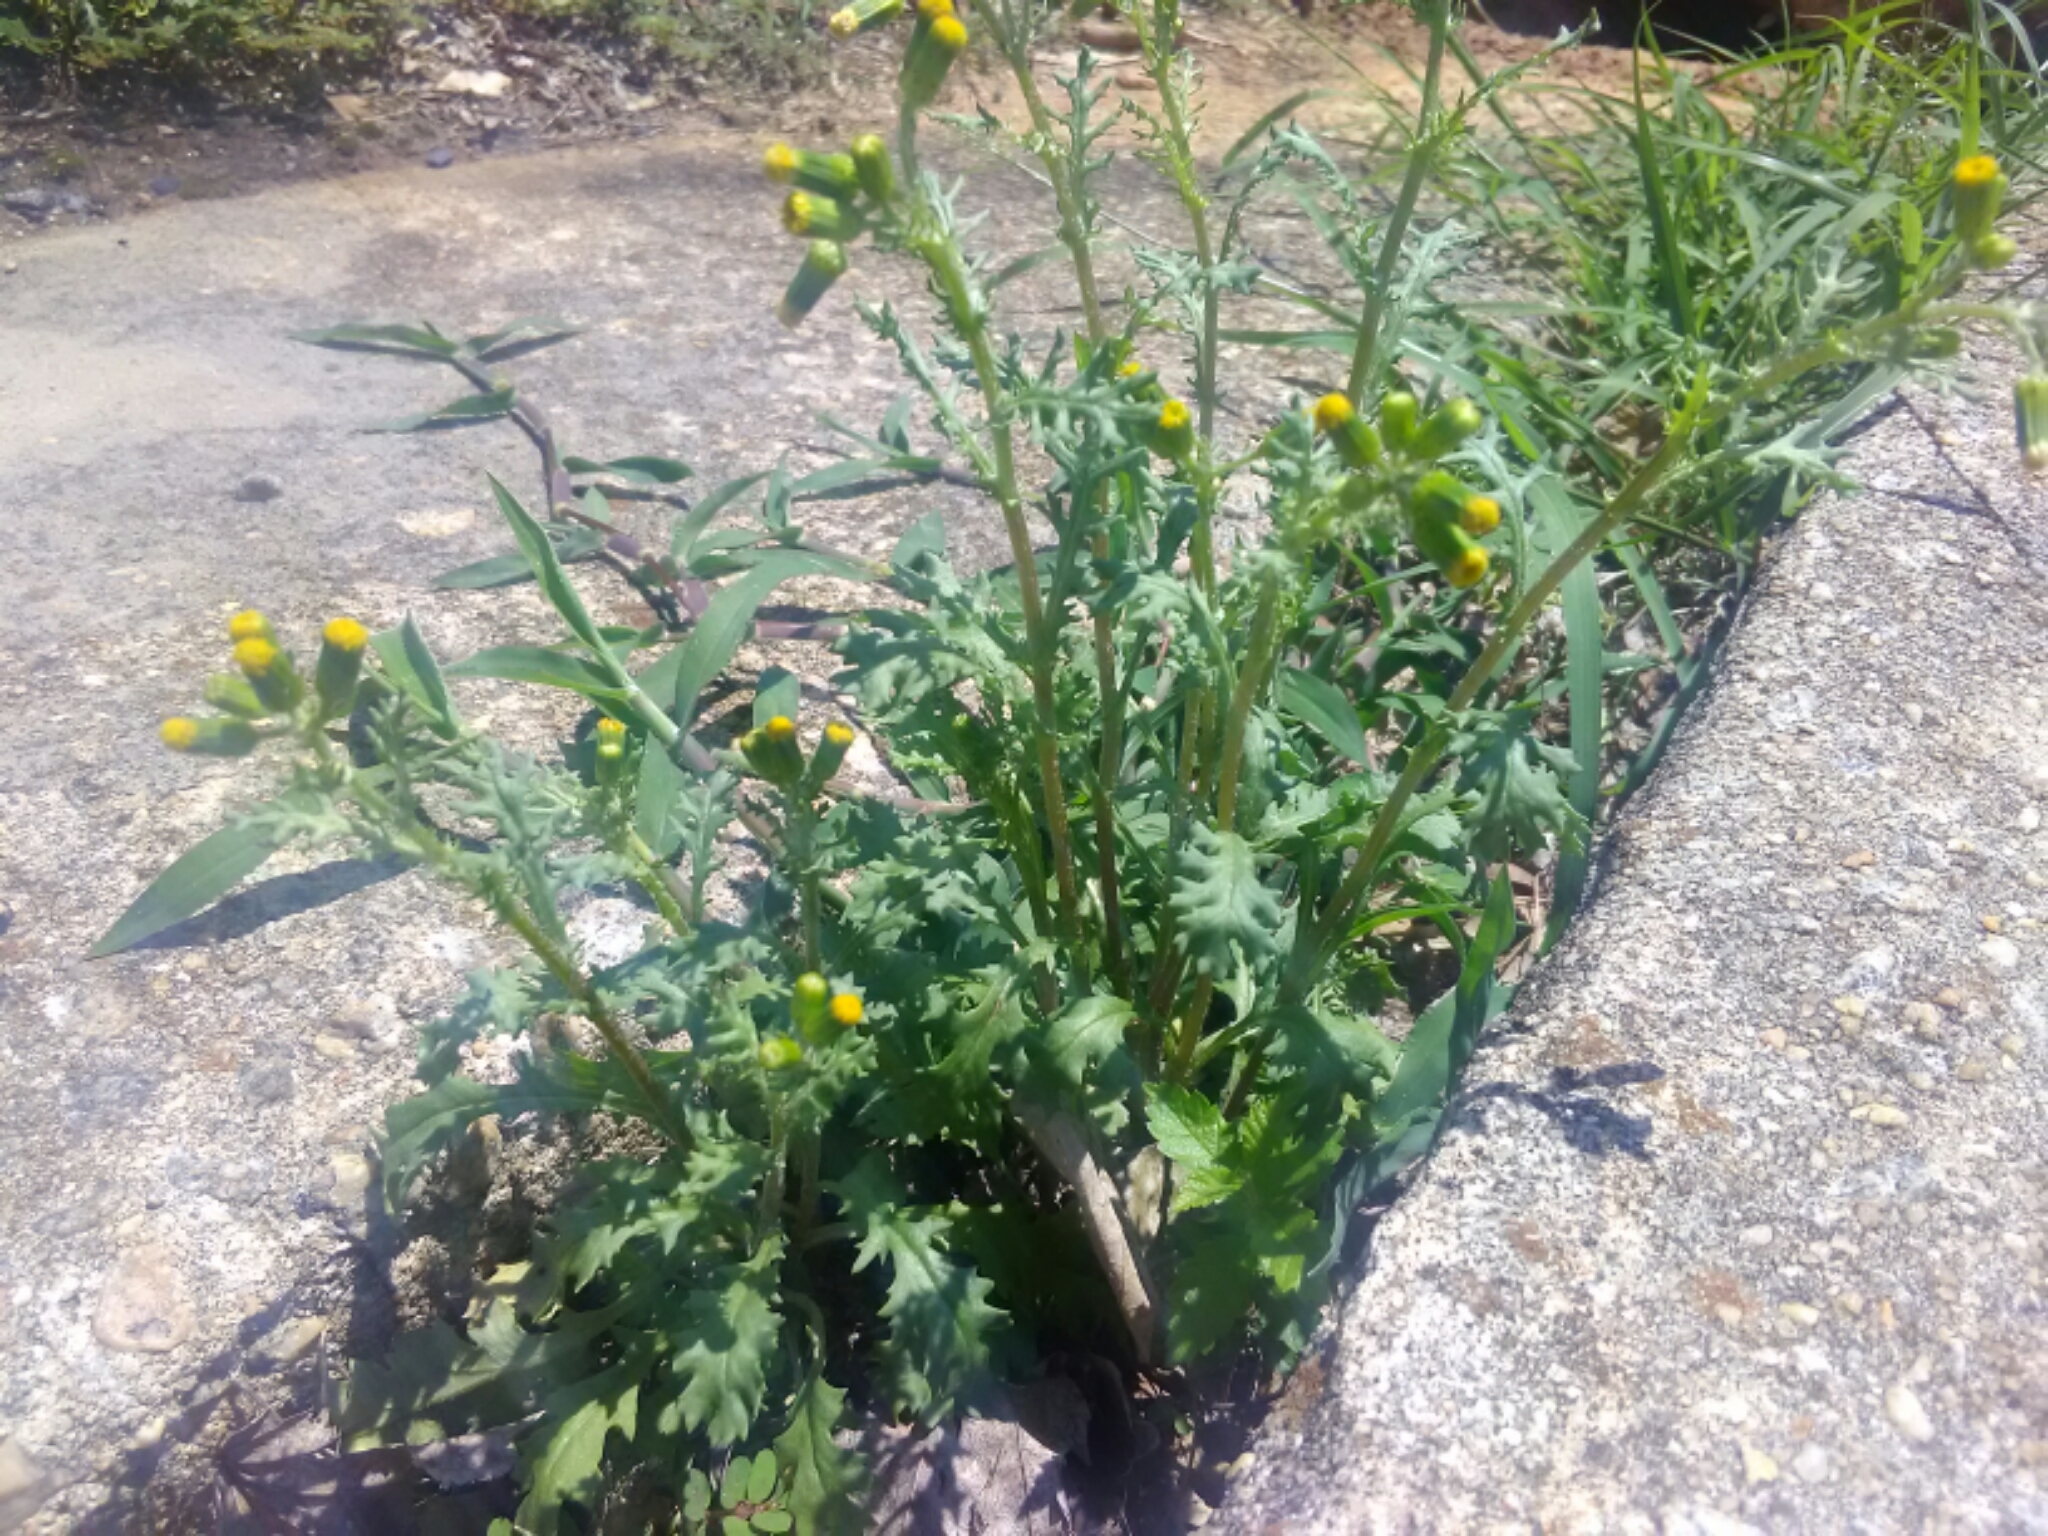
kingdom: Plantae
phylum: Tracheophyta
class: Magnoliopsida
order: Asterales
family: Asteraceae
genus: Senecio
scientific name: Senecio vulgaris
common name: Old-man-in-the-spring
